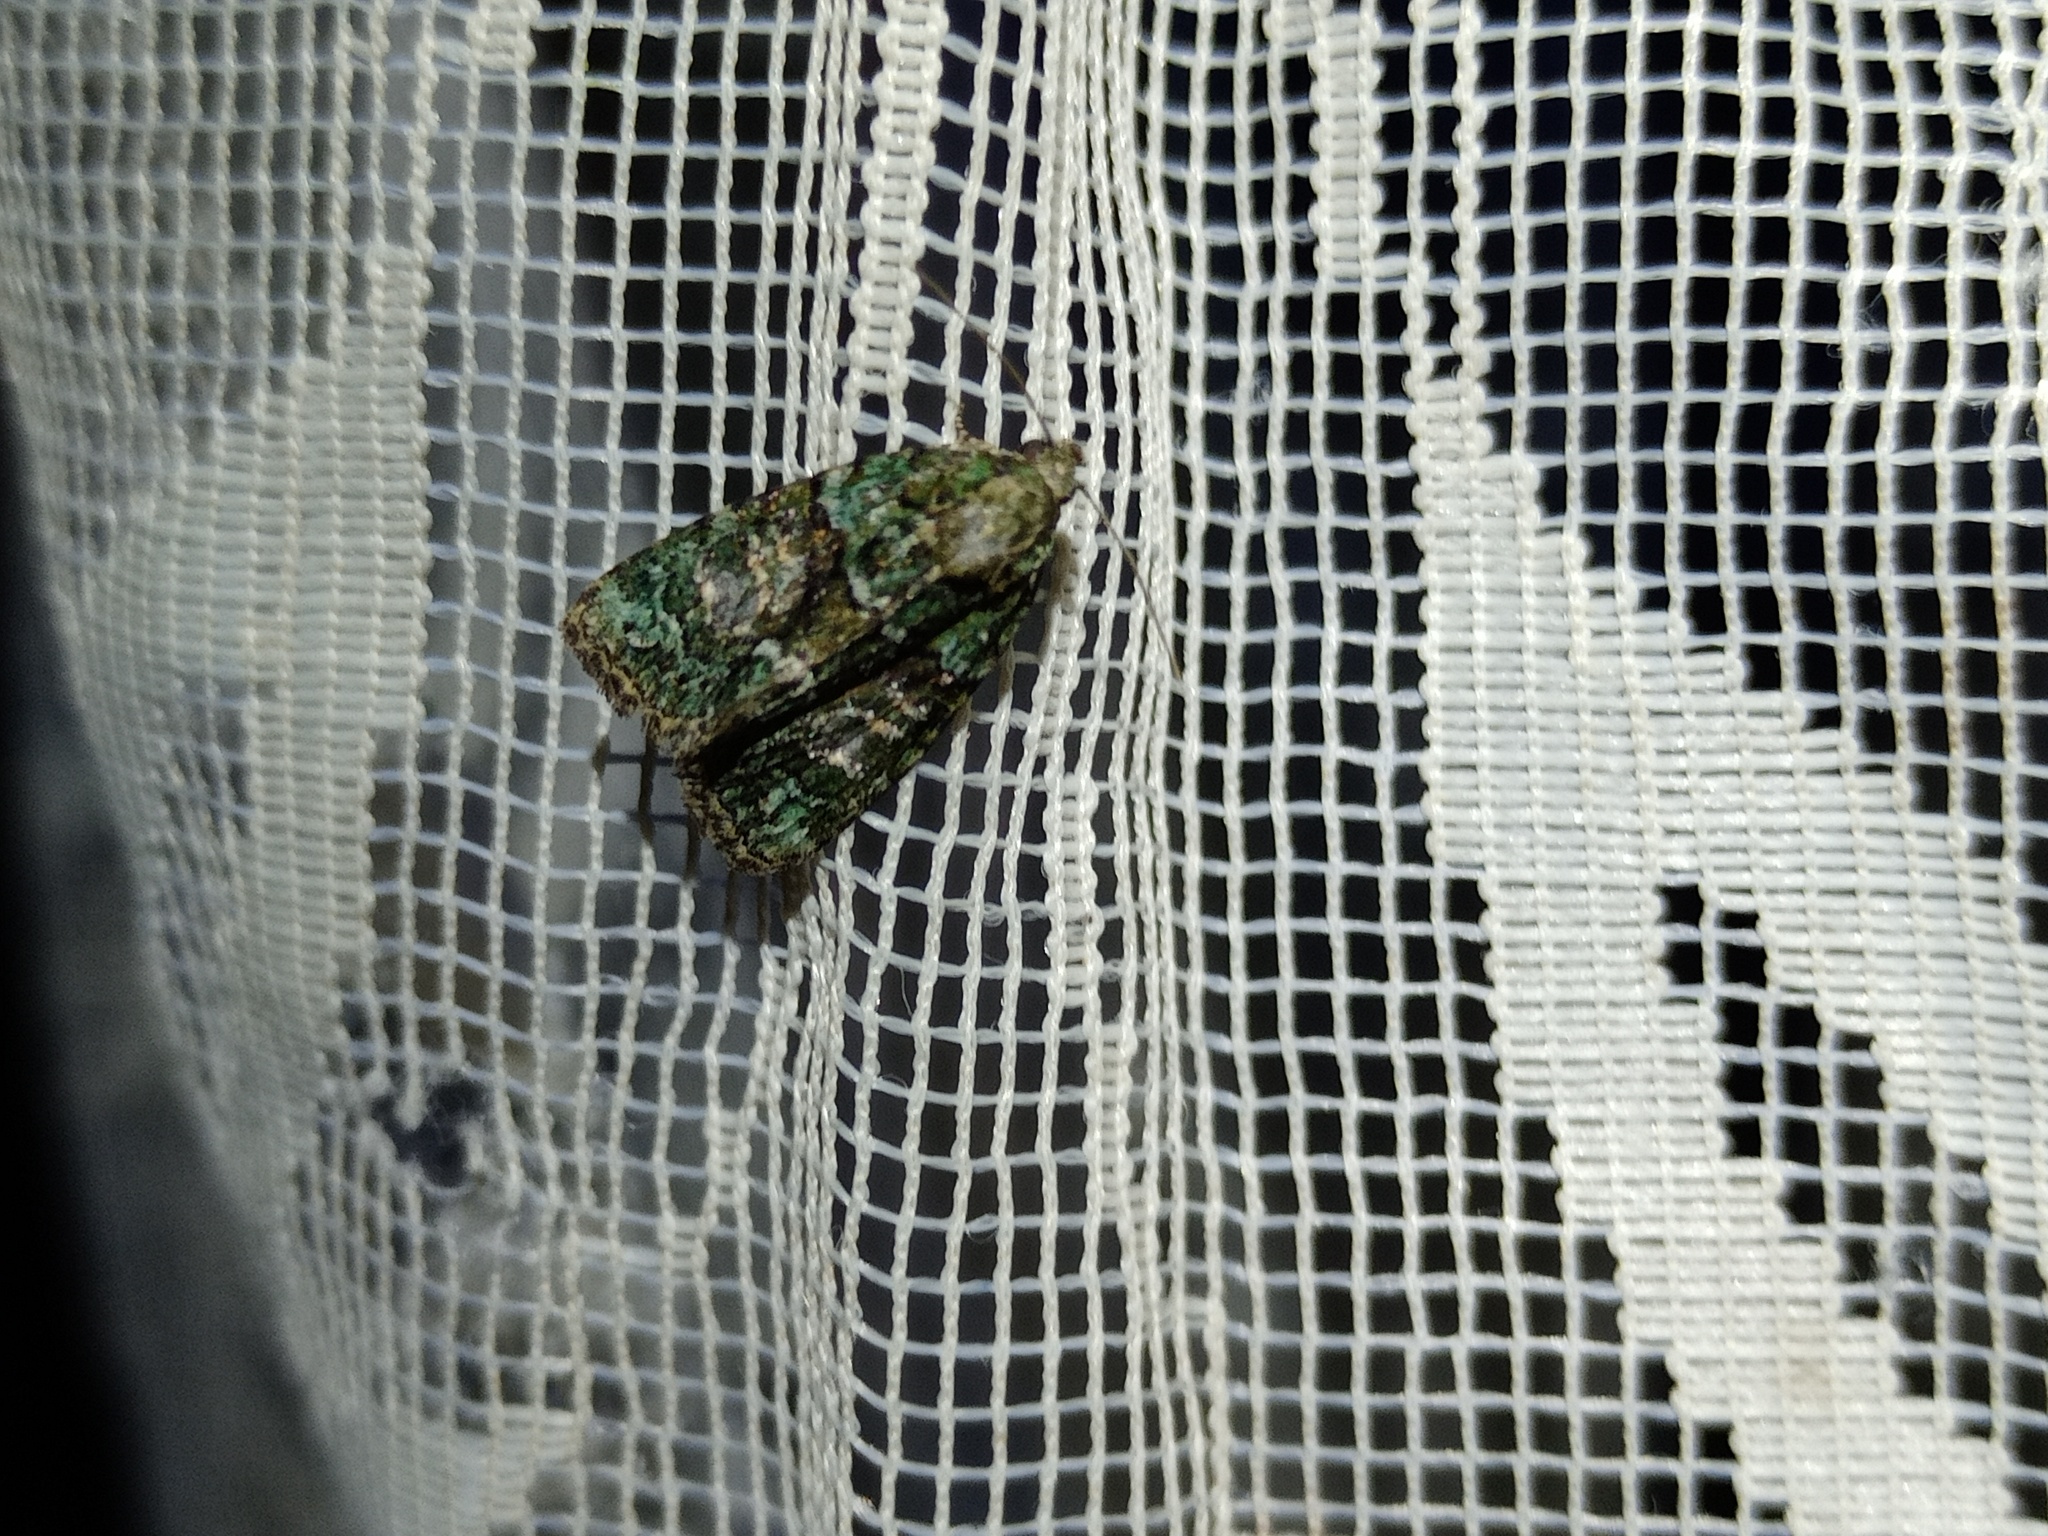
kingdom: Animalia
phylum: Arthropoda
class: Insecta
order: Lepidoptera
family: Noctuidae
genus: Cryphia
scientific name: Cryphia algae
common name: Tree-lichen beauty
